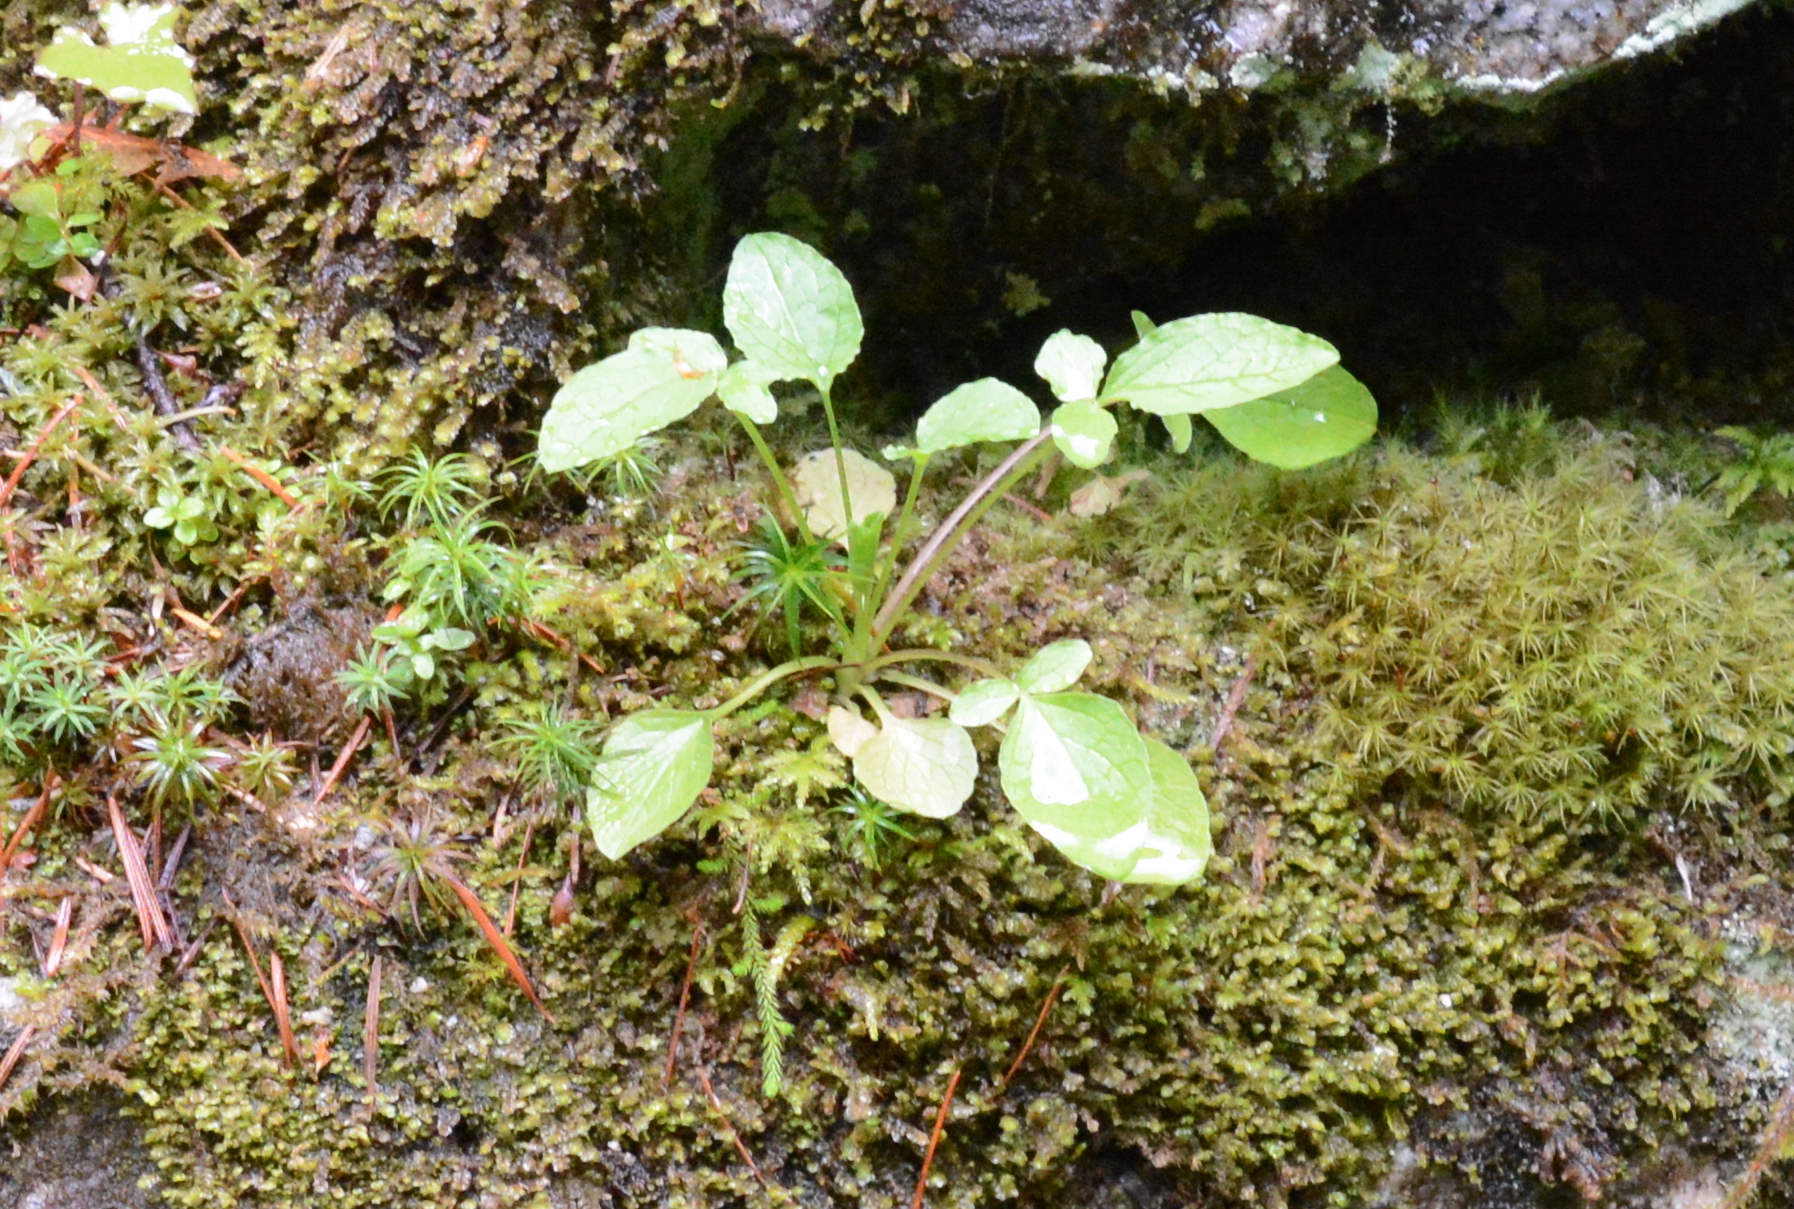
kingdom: Plantae
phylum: Tracheophyta
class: Magnoliopsida
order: Dipsacales
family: Caprifoliaceae
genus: Valeriana
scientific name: Valeriana sitchensis
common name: Pacific valerian
